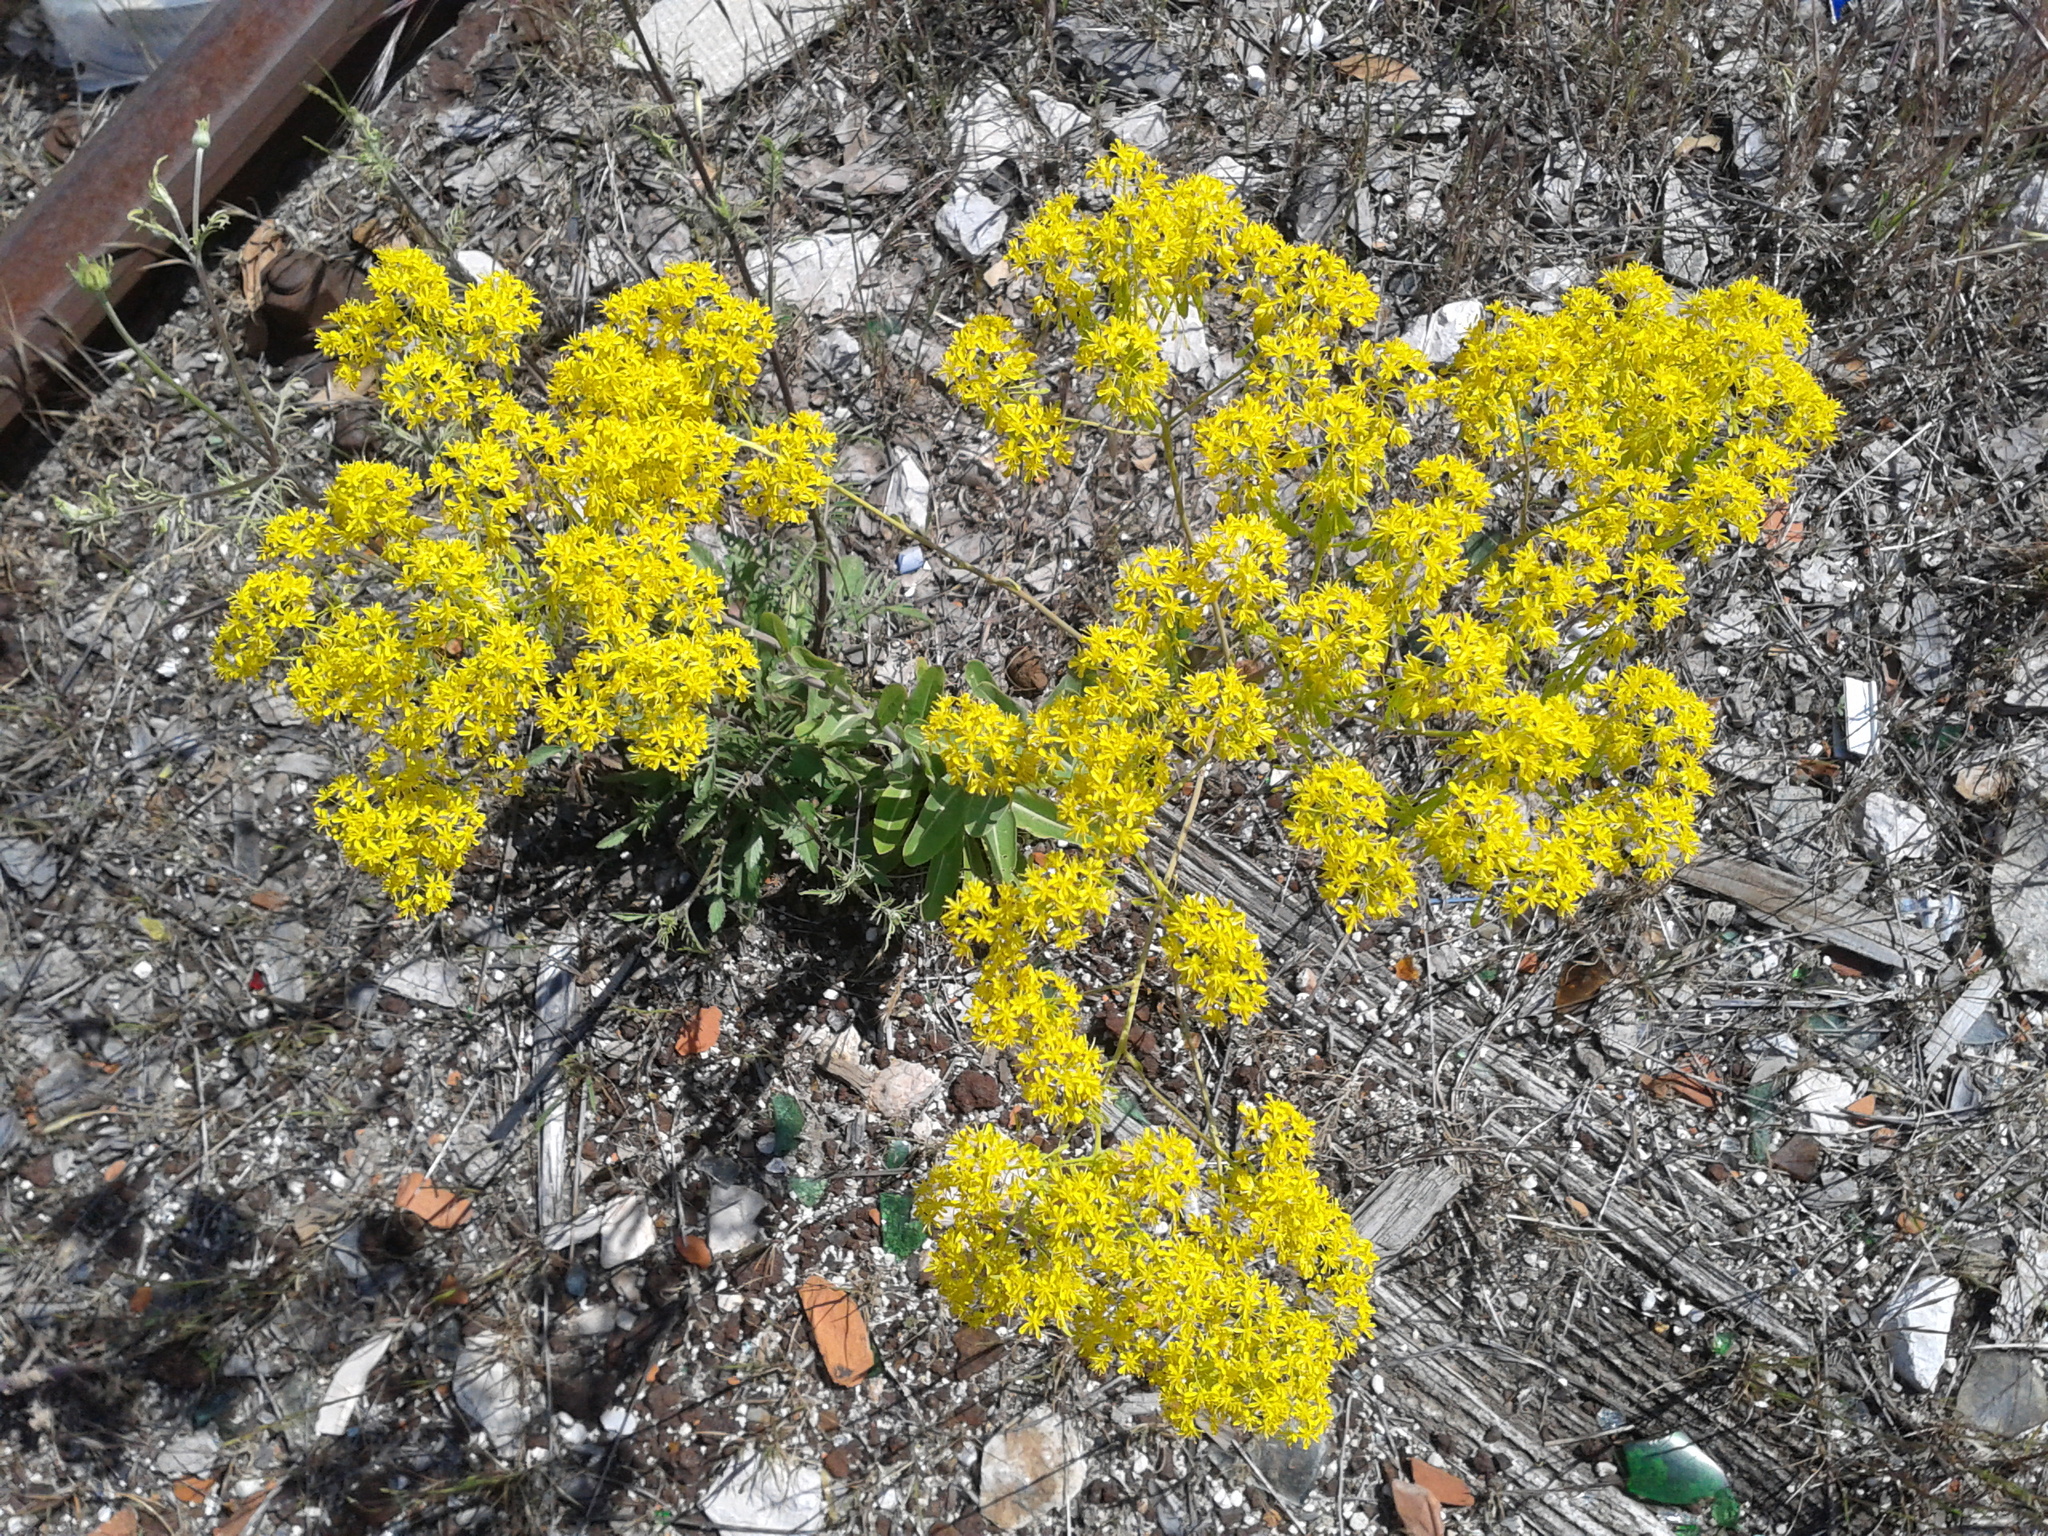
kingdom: Plantae
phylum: Tracheophyta
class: Magnoliopsida
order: Brassicales
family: Brassicaceae
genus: Isatis
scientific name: Isatis tinctoria
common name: Woad
